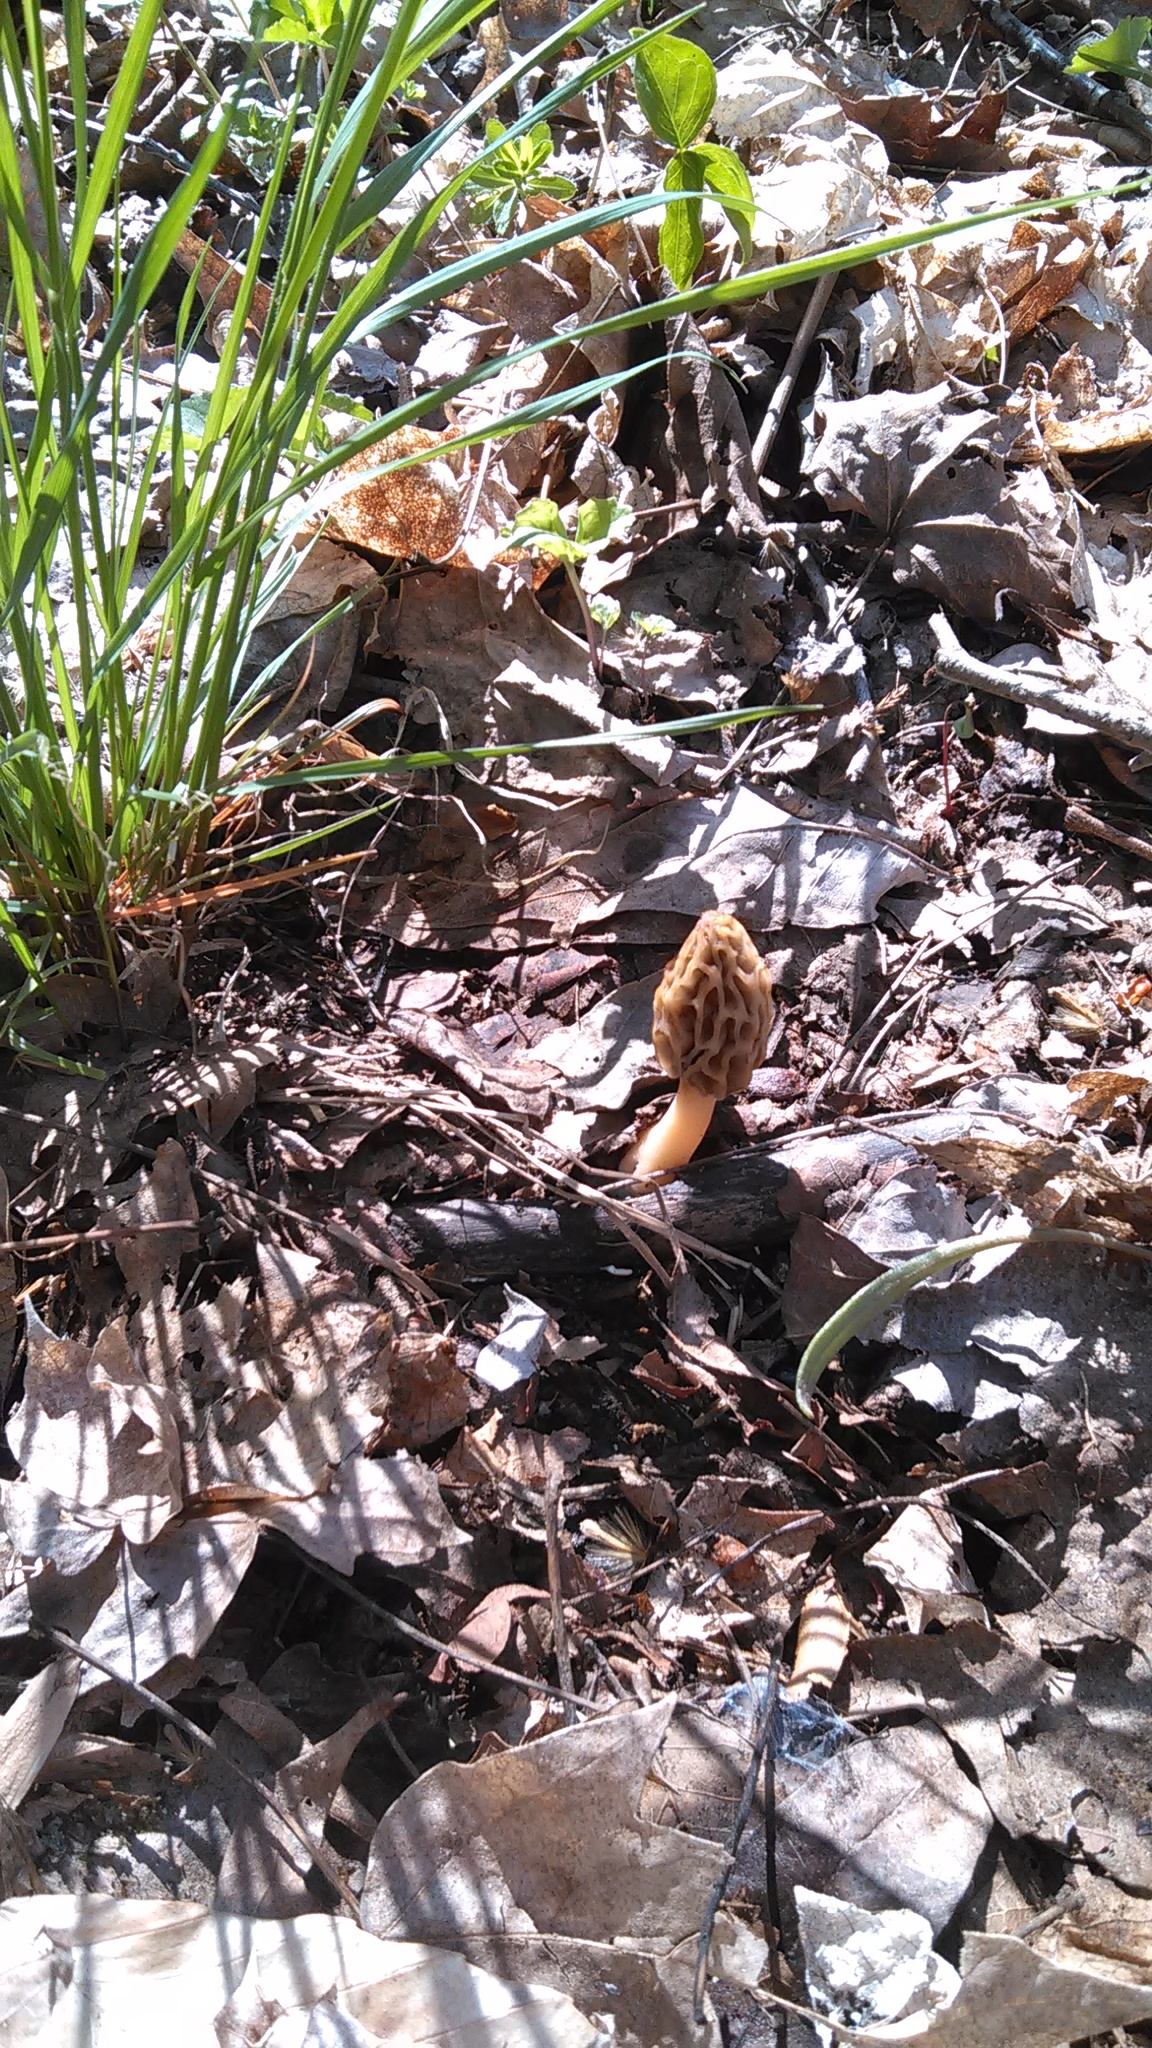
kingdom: Fungi
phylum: Ascomycota
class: Pezizomycetes
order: Pezizales
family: Morchellaceae
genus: Morchella
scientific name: Morchella diminutiva
